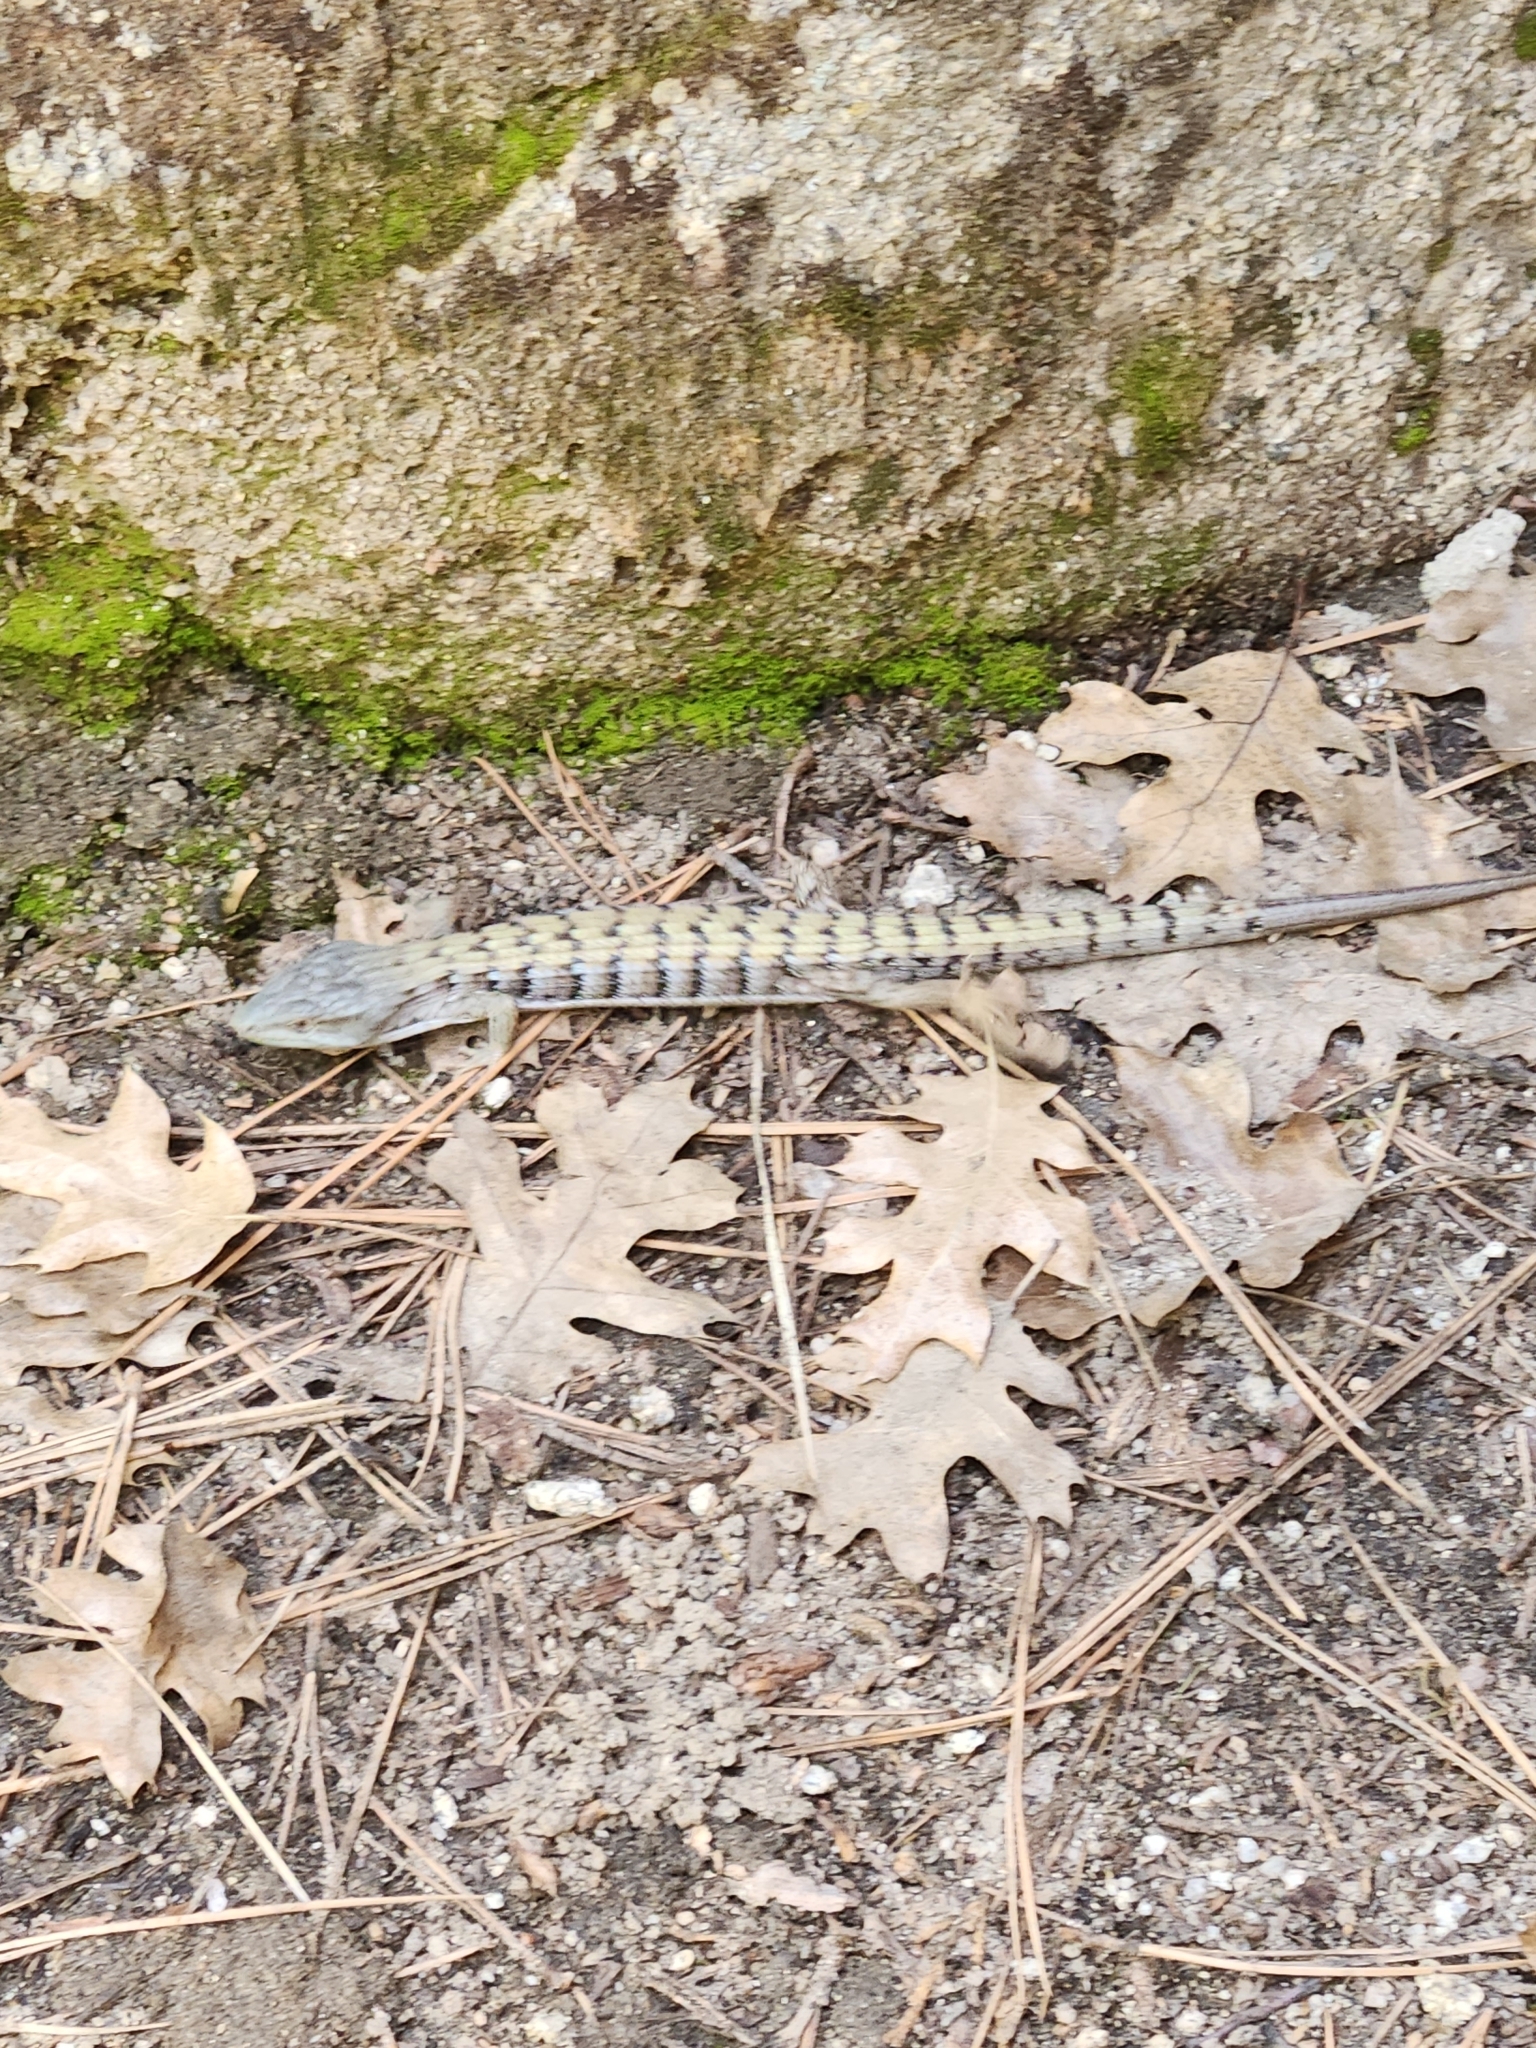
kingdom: Animalia
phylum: Chordata
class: Squamata
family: Anguidae
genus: Elgaria
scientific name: Elgaria multicarinata
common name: Southern alligator lizard
